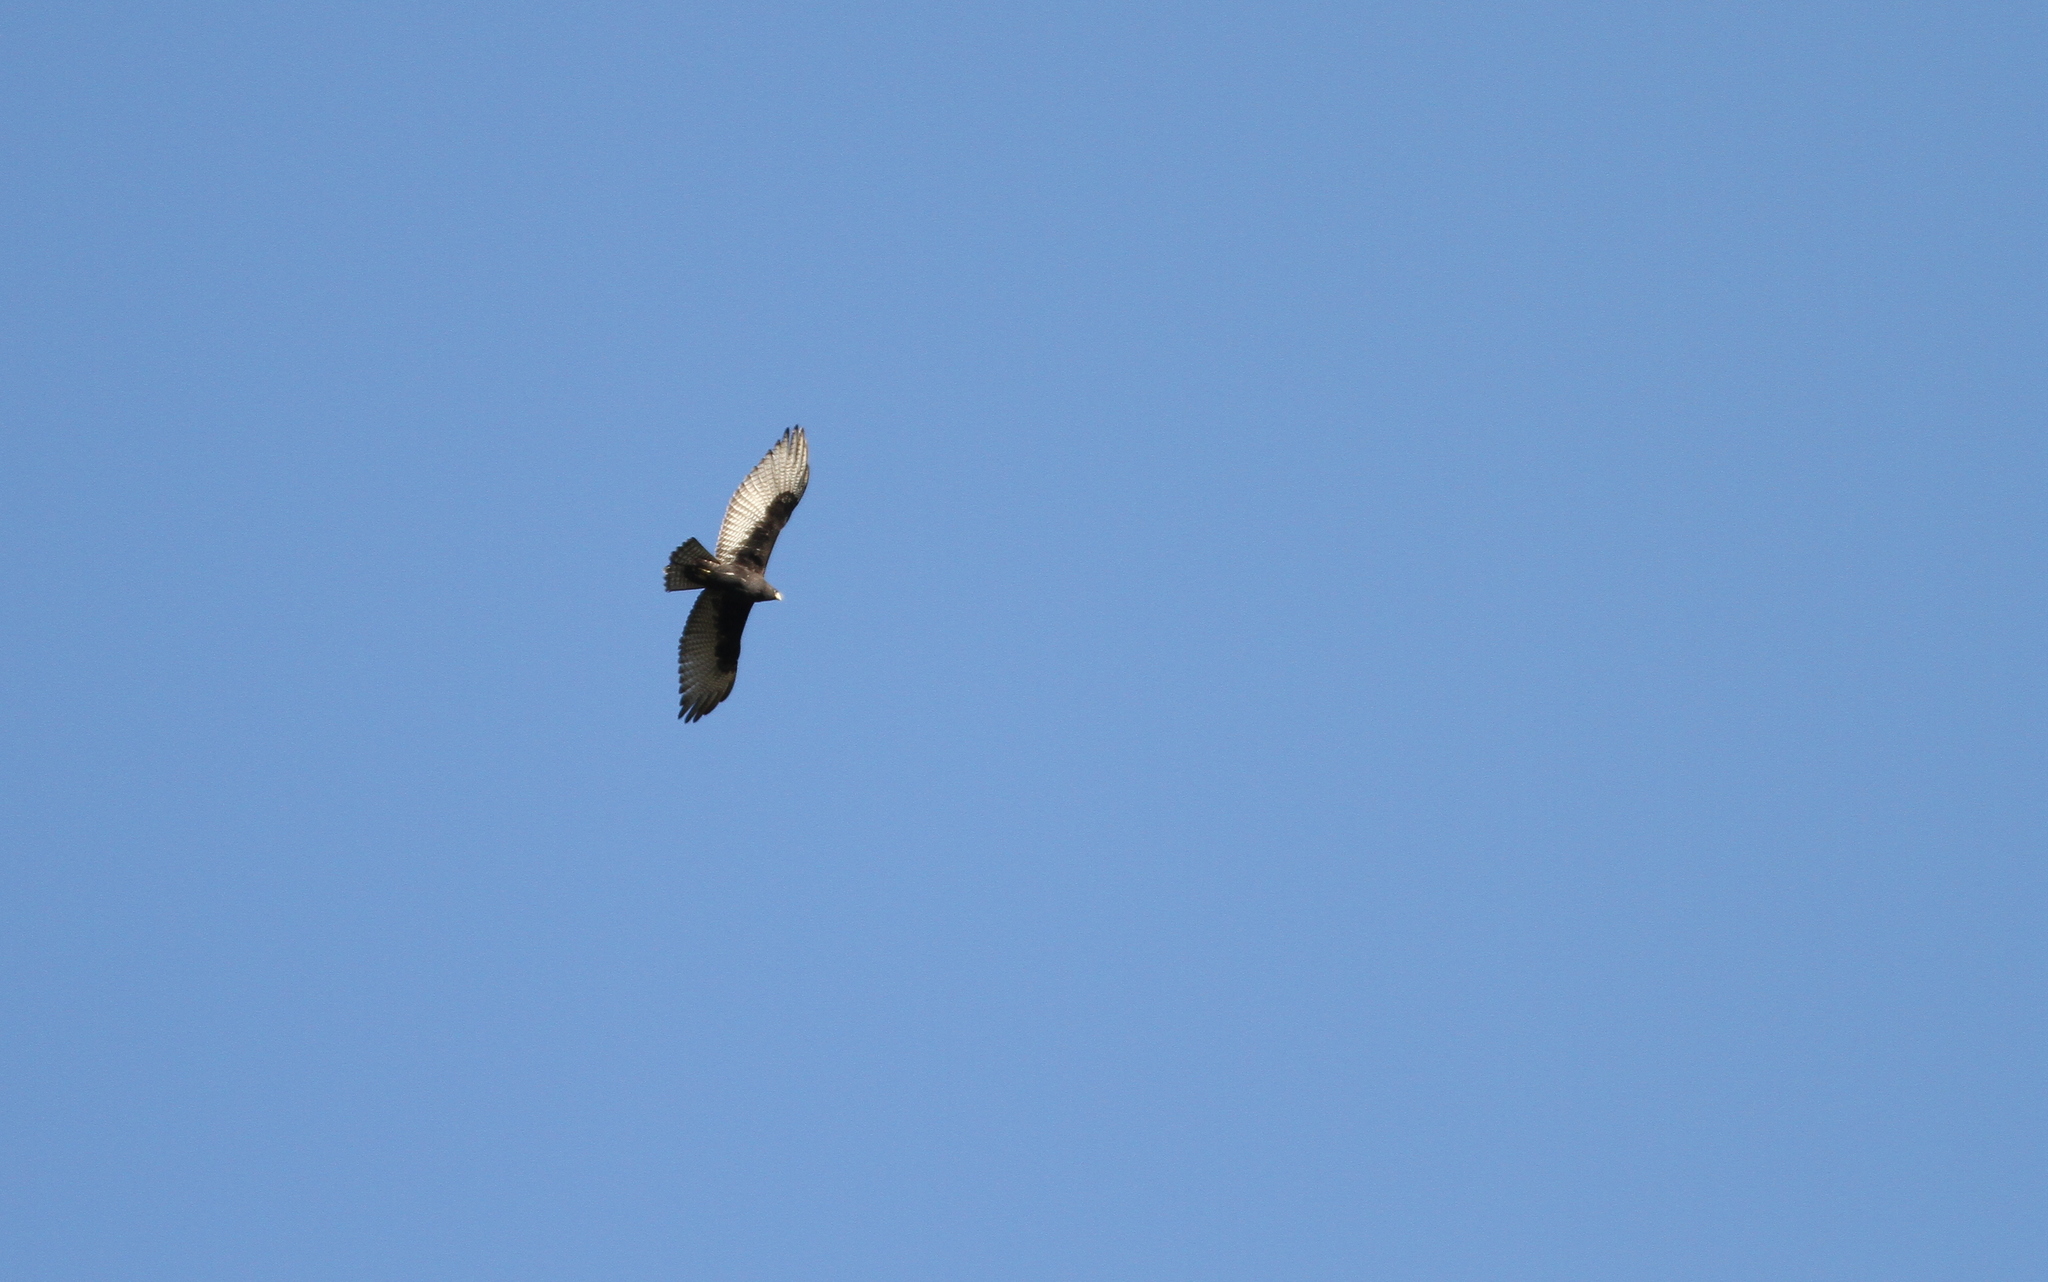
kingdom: Animalia
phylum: Chordata
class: Aves
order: Accipitriformes
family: Accipitridae
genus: Buteo
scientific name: Buteo albonotatus
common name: Zone-tailed hawk
